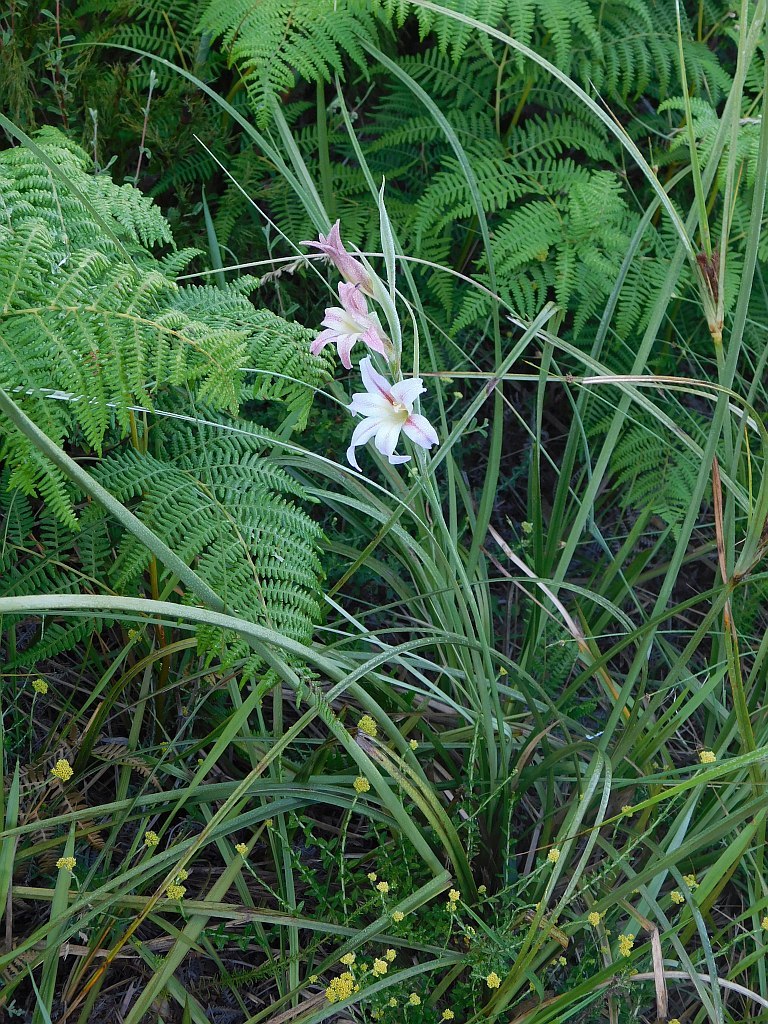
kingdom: Plantae
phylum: Tracheophyta
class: Liliopsida
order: Asparagales
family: Iridaceae
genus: Gladiolus
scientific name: Gladiolus liliaceus
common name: Large brown afrikaner
